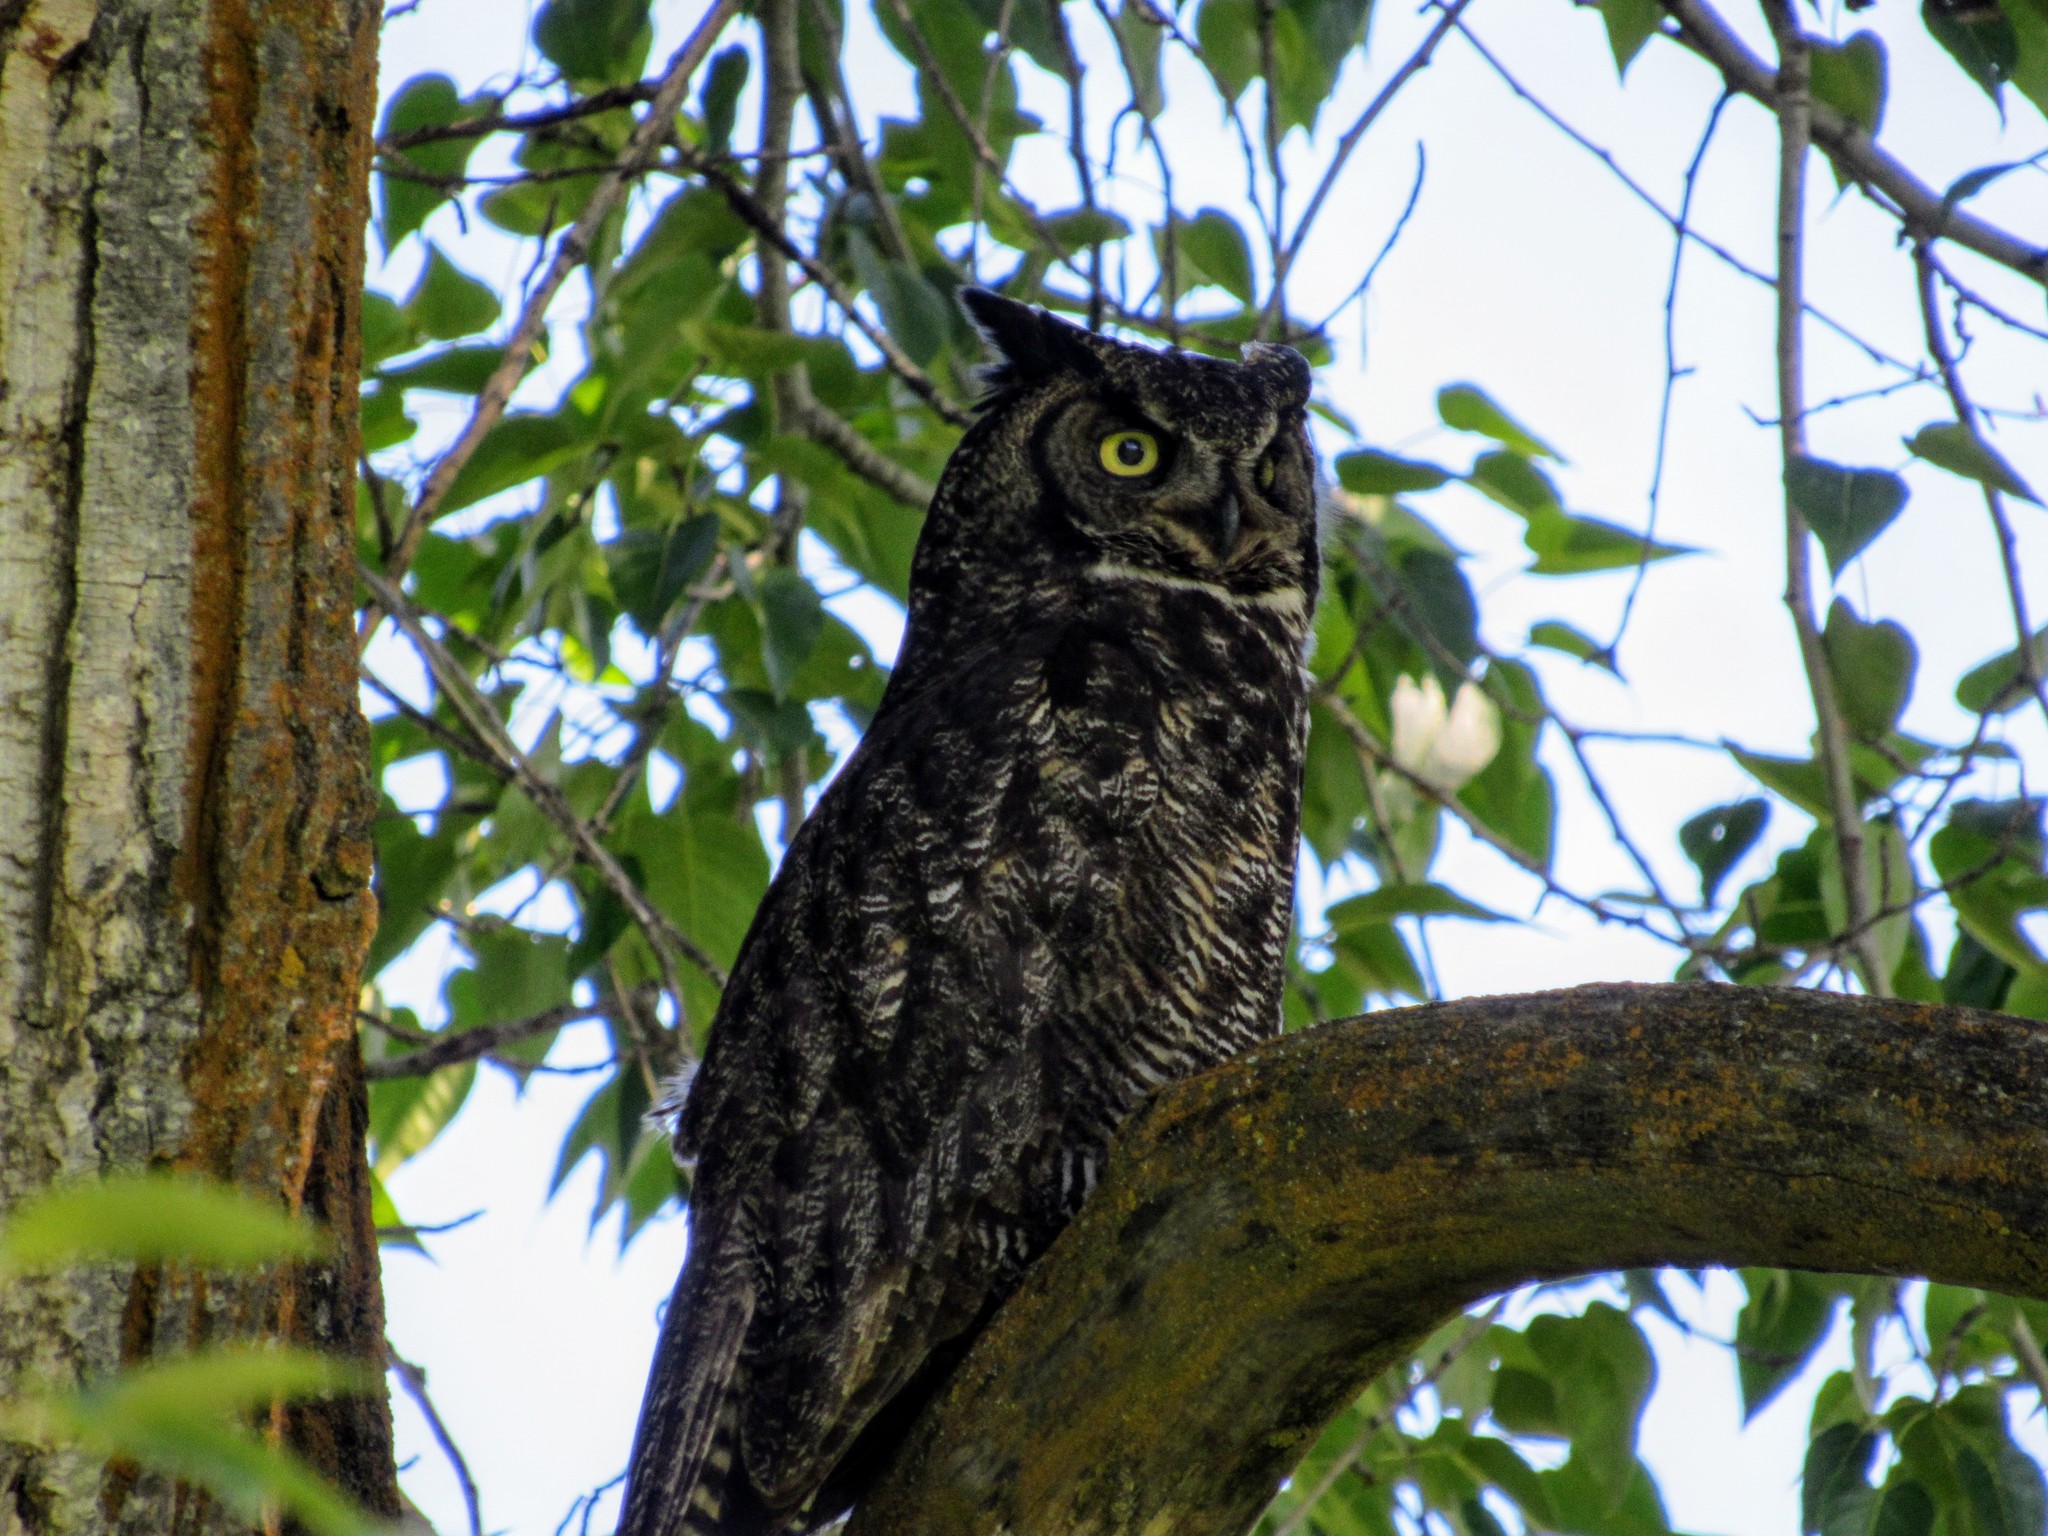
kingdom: Animalia
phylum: Chordata
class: Aves
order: Strigiformes
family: Strigidae
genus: Bubo
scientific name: Bubo virginianus
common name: Great horned owl
